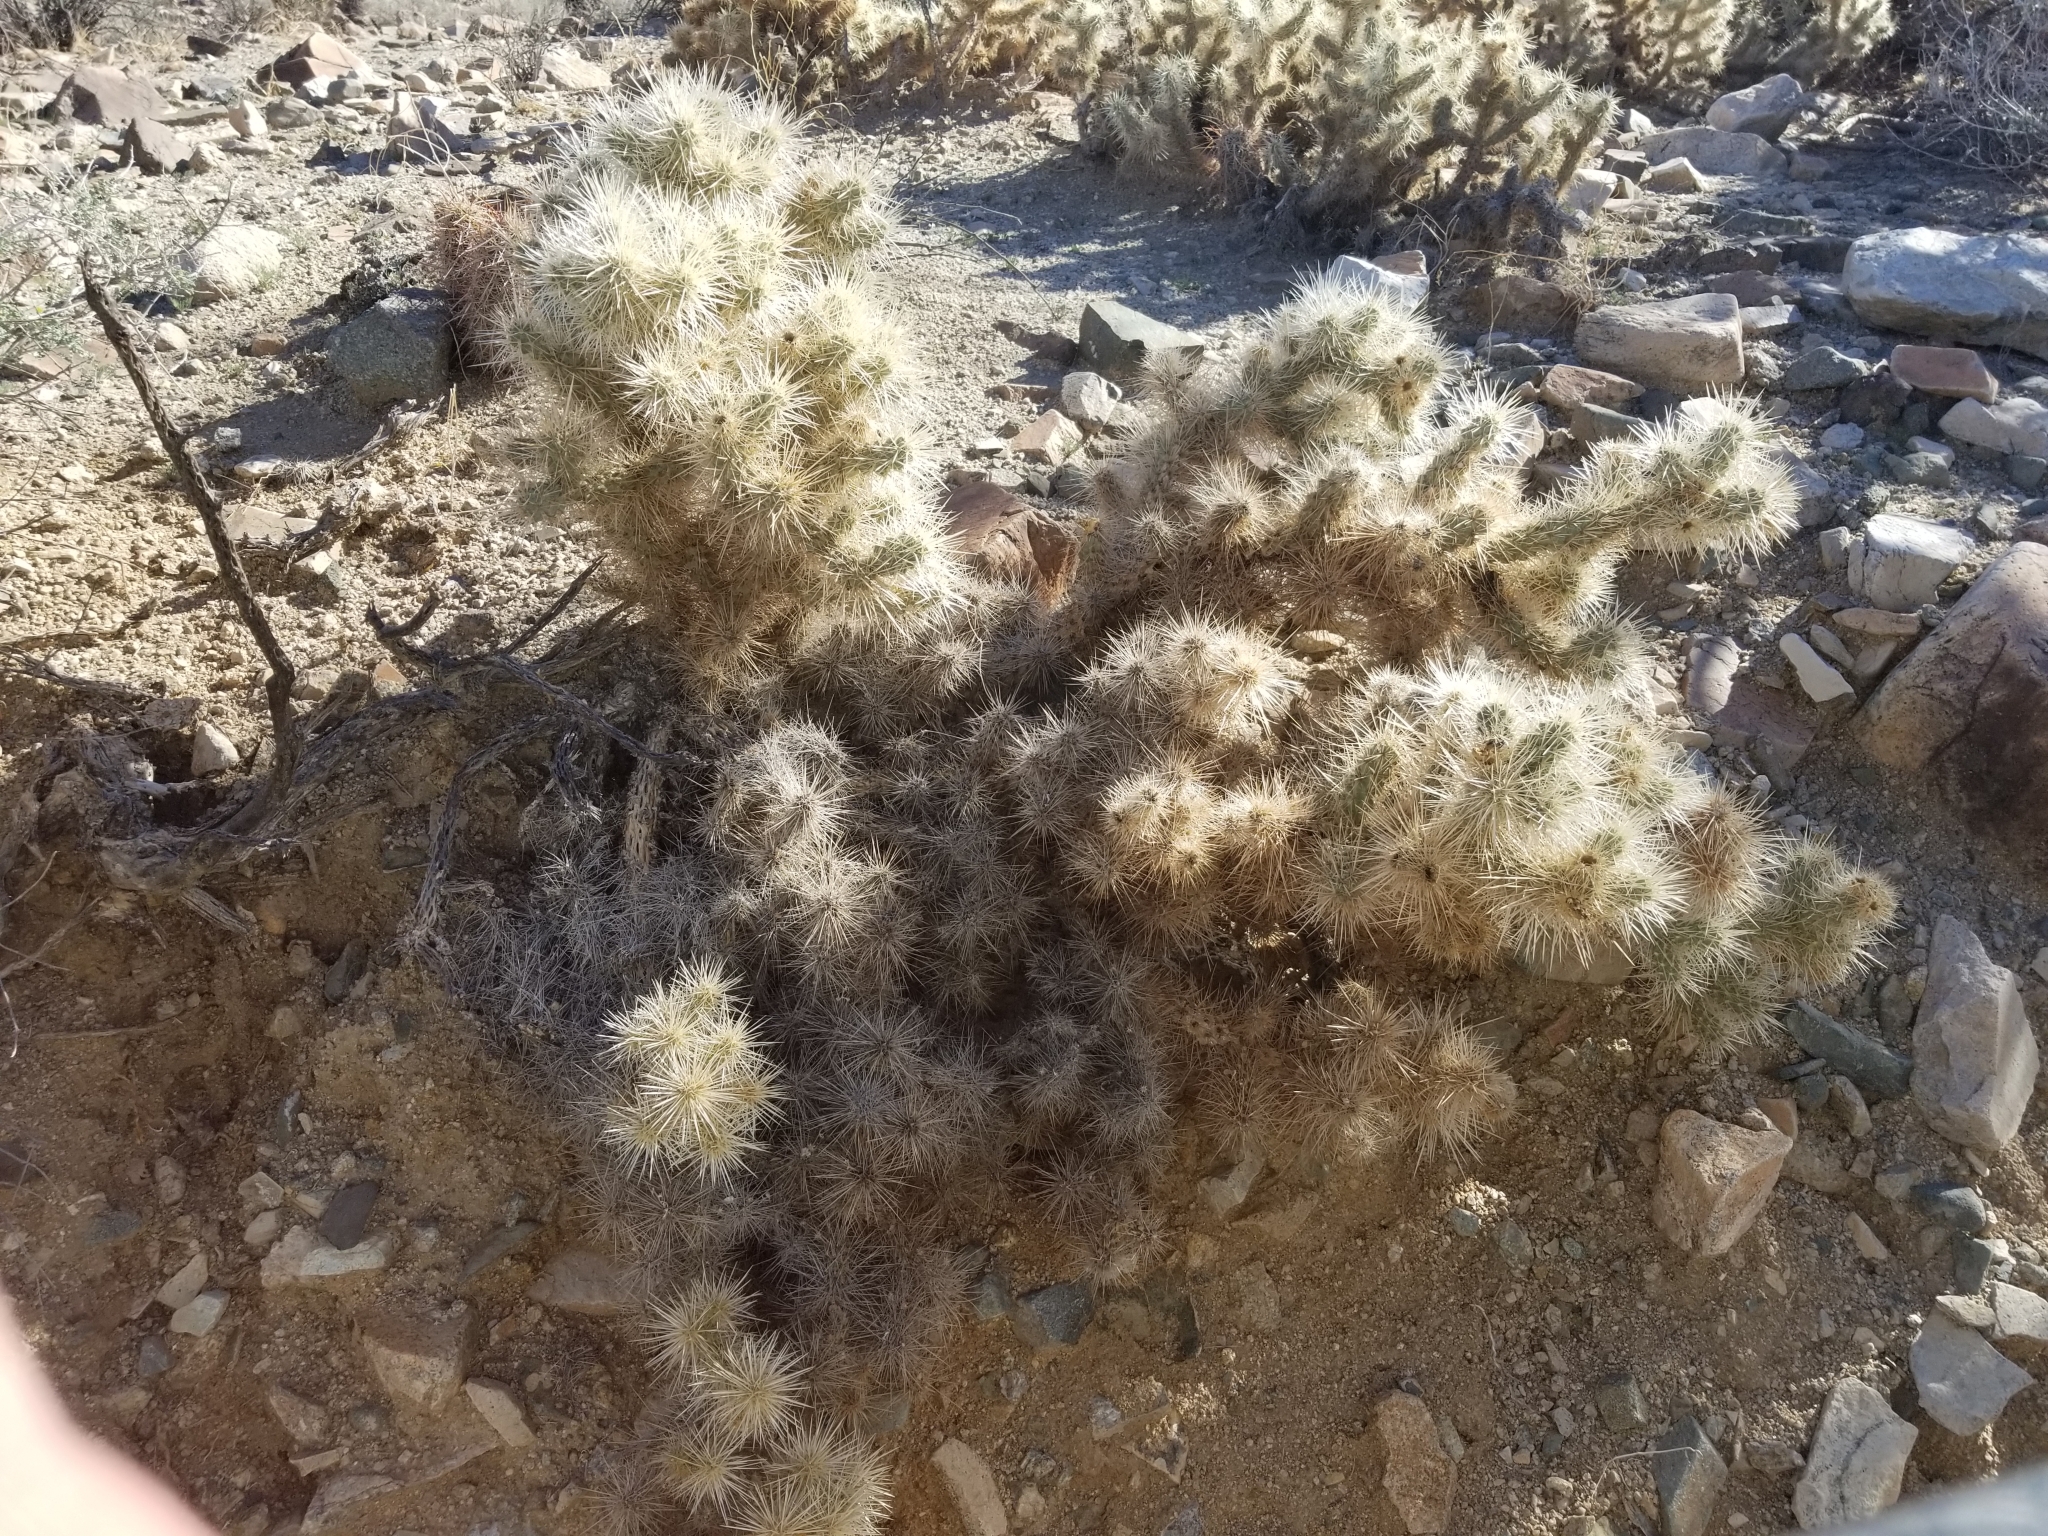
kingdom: Plantae
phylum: Tracheophyta
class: Magnoliopsida
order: Caryophyllales
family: Cactaceae
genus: Cylindropuntia
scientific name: Cylindropuntia chuckwallensis
